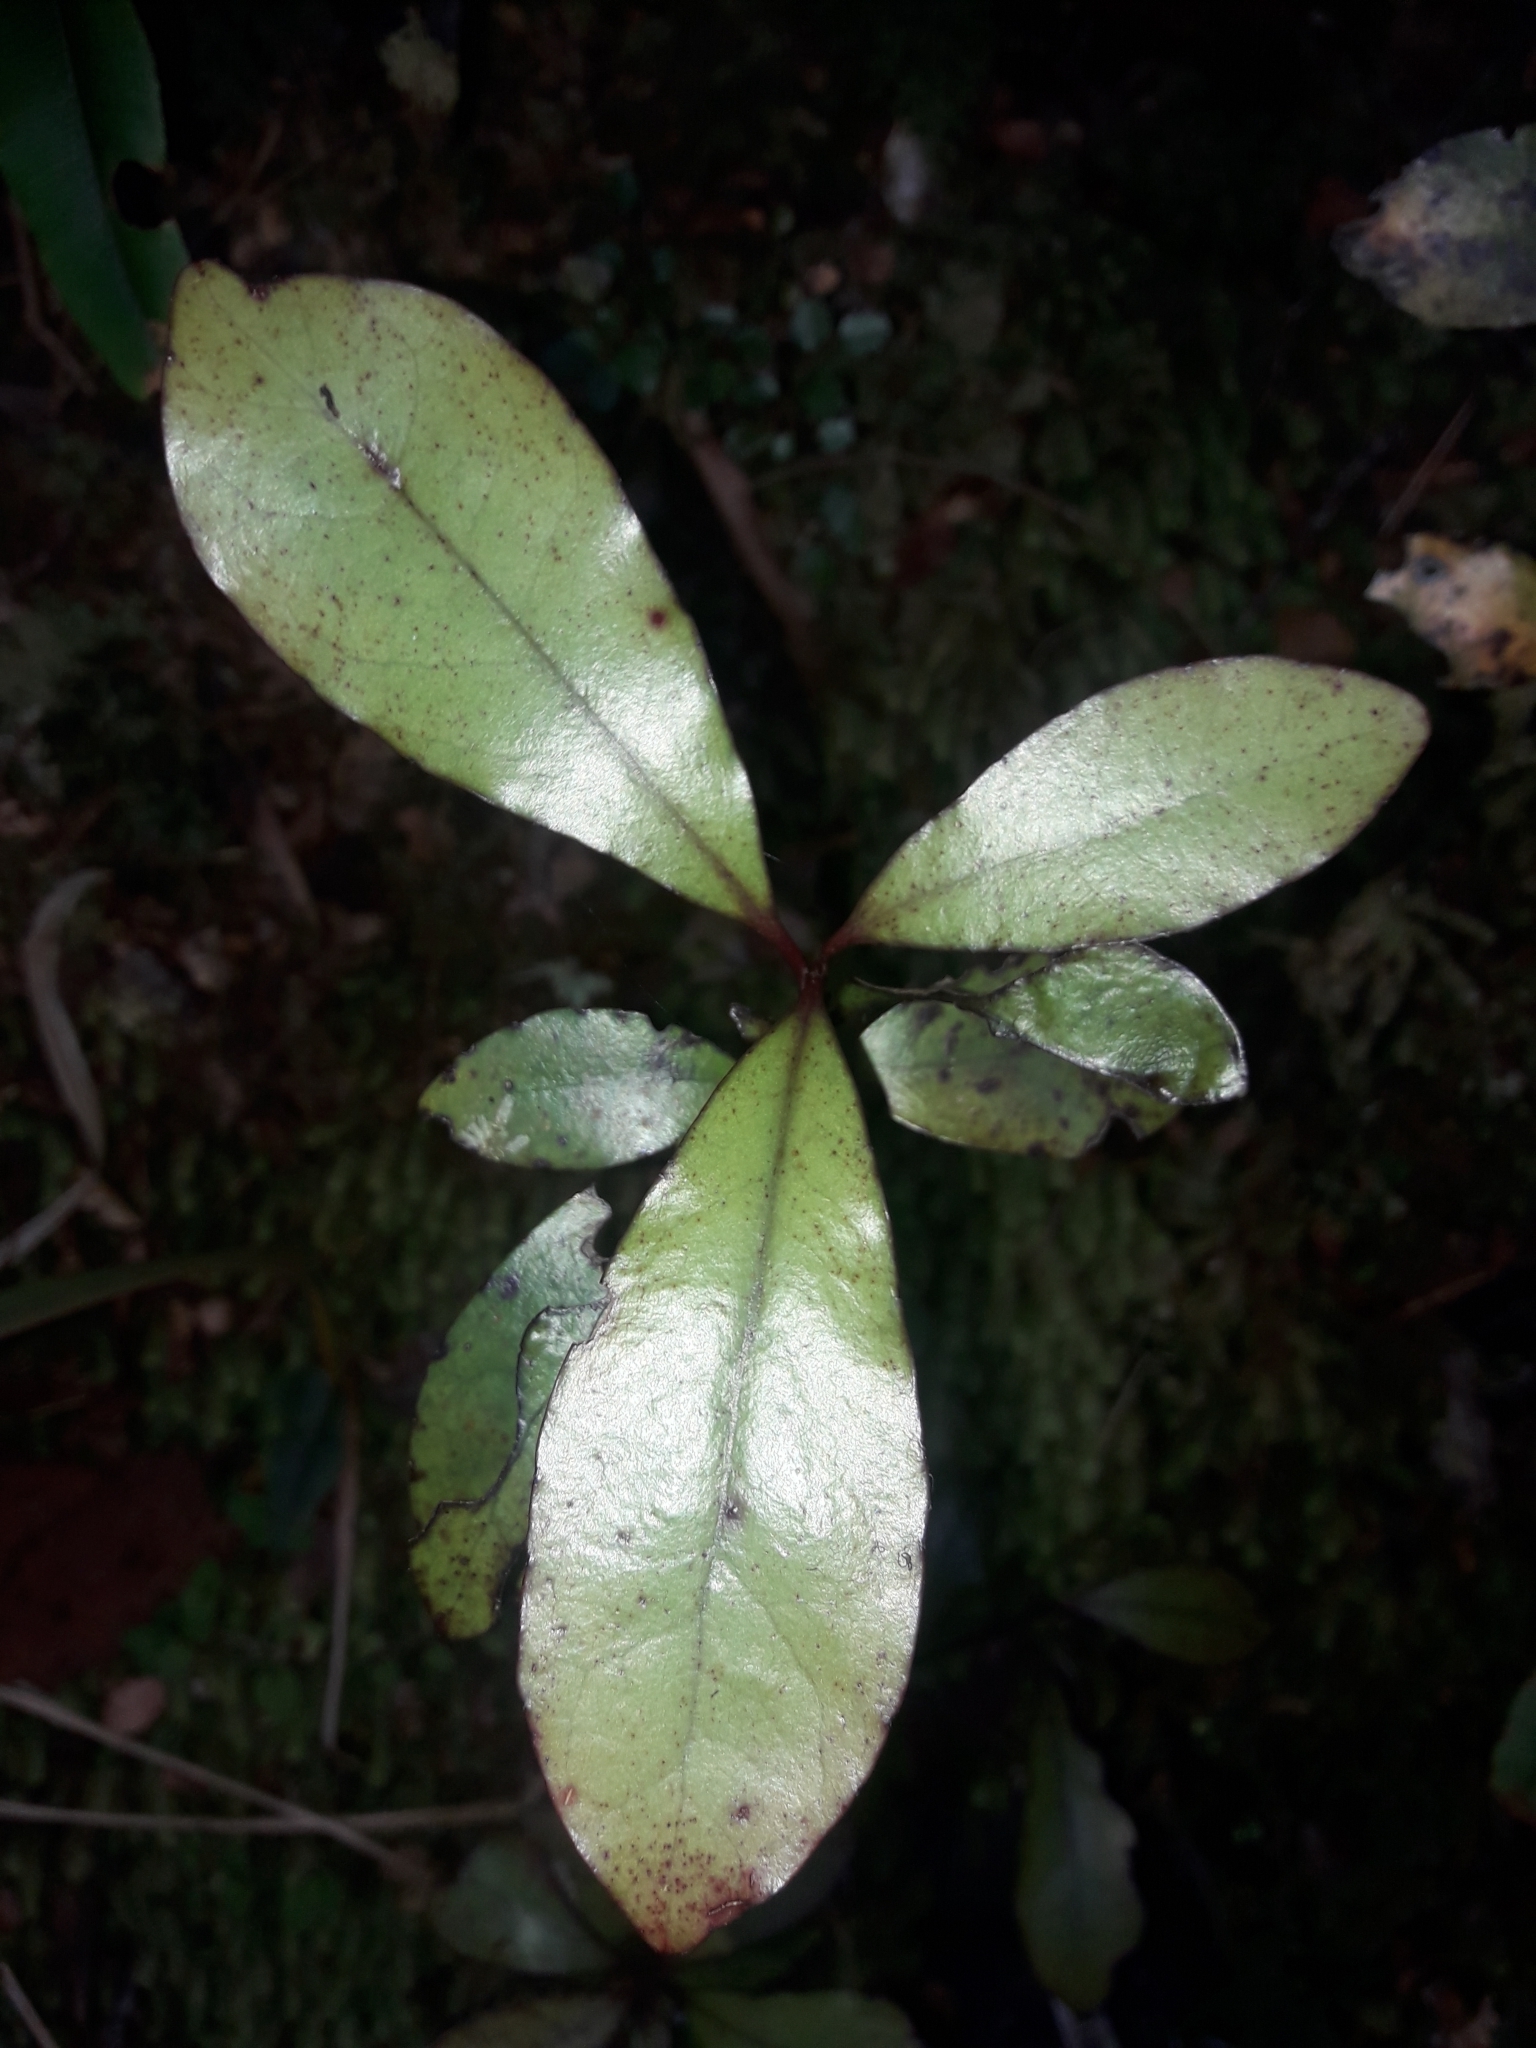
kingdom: Plantae
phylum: Tracheophyta
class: Magnoliopsida
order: Asterales
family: Alseuosmiaceae
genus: Alseuosmia
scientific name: Alseuosmia pusilla
